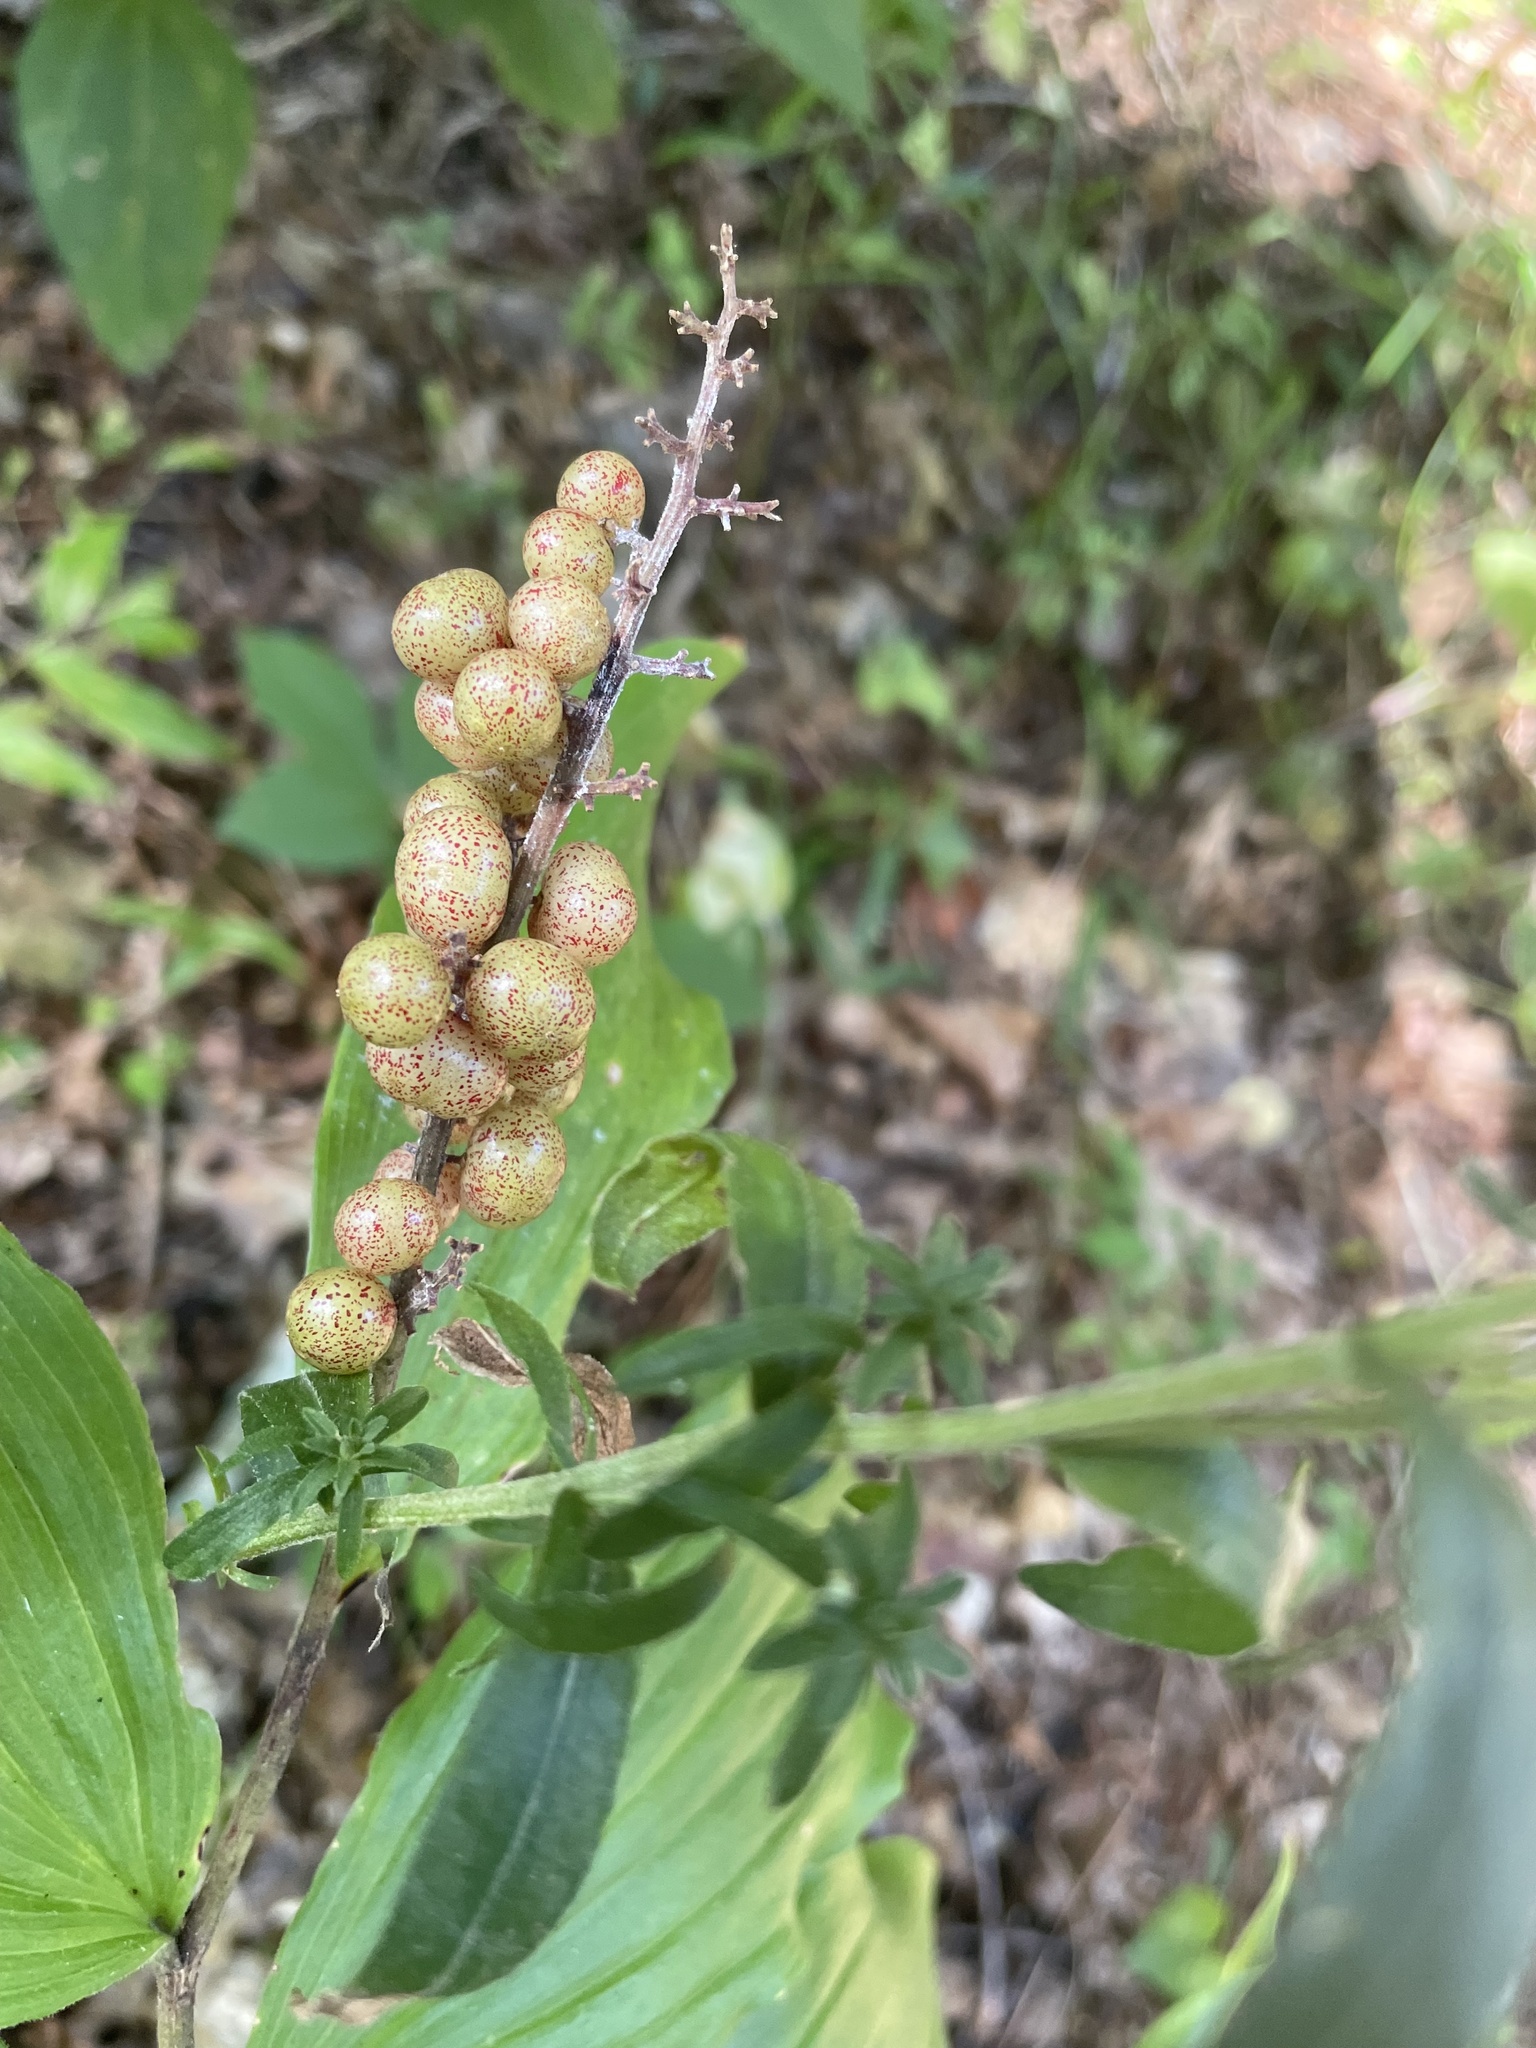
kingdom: Plantae
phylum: Tracheophyta
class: Liliopsida
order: Asparagales
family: Asparagaceae
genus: Maianthemum
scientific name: Maianthemum racemosum
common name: False spikenard
